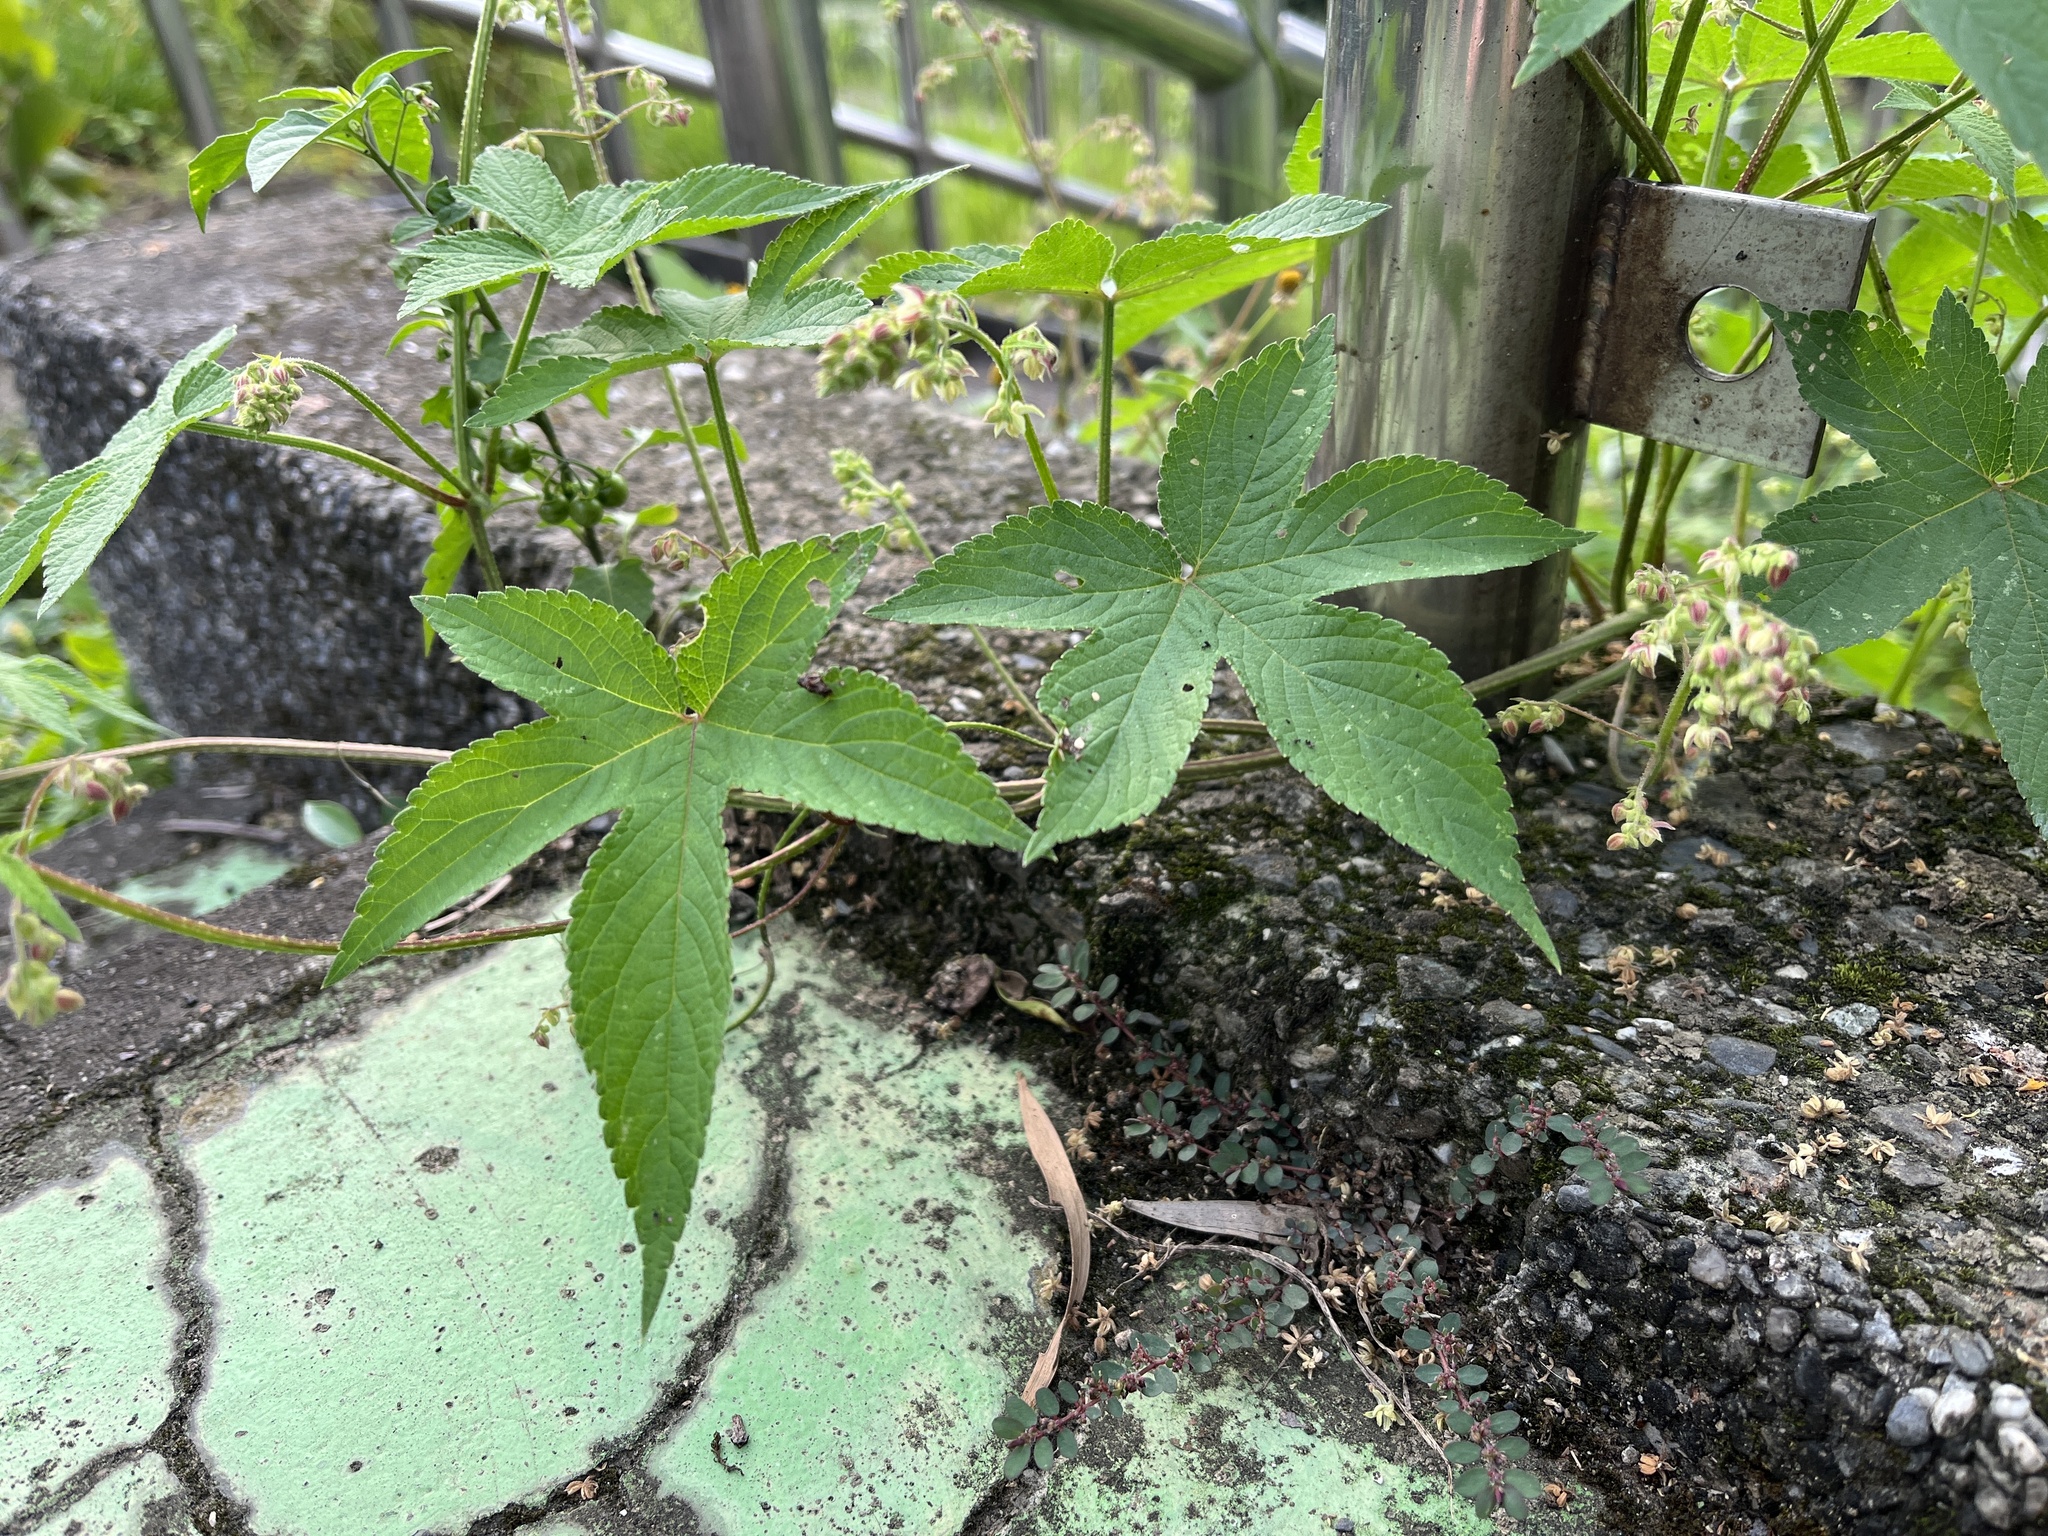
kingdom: Plantae
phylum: Tracheophyta
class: Magnoliopsida
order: Rosales
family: Cannabaceae
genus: Humulus
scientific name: Humulus scandens
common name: Japanese hop
